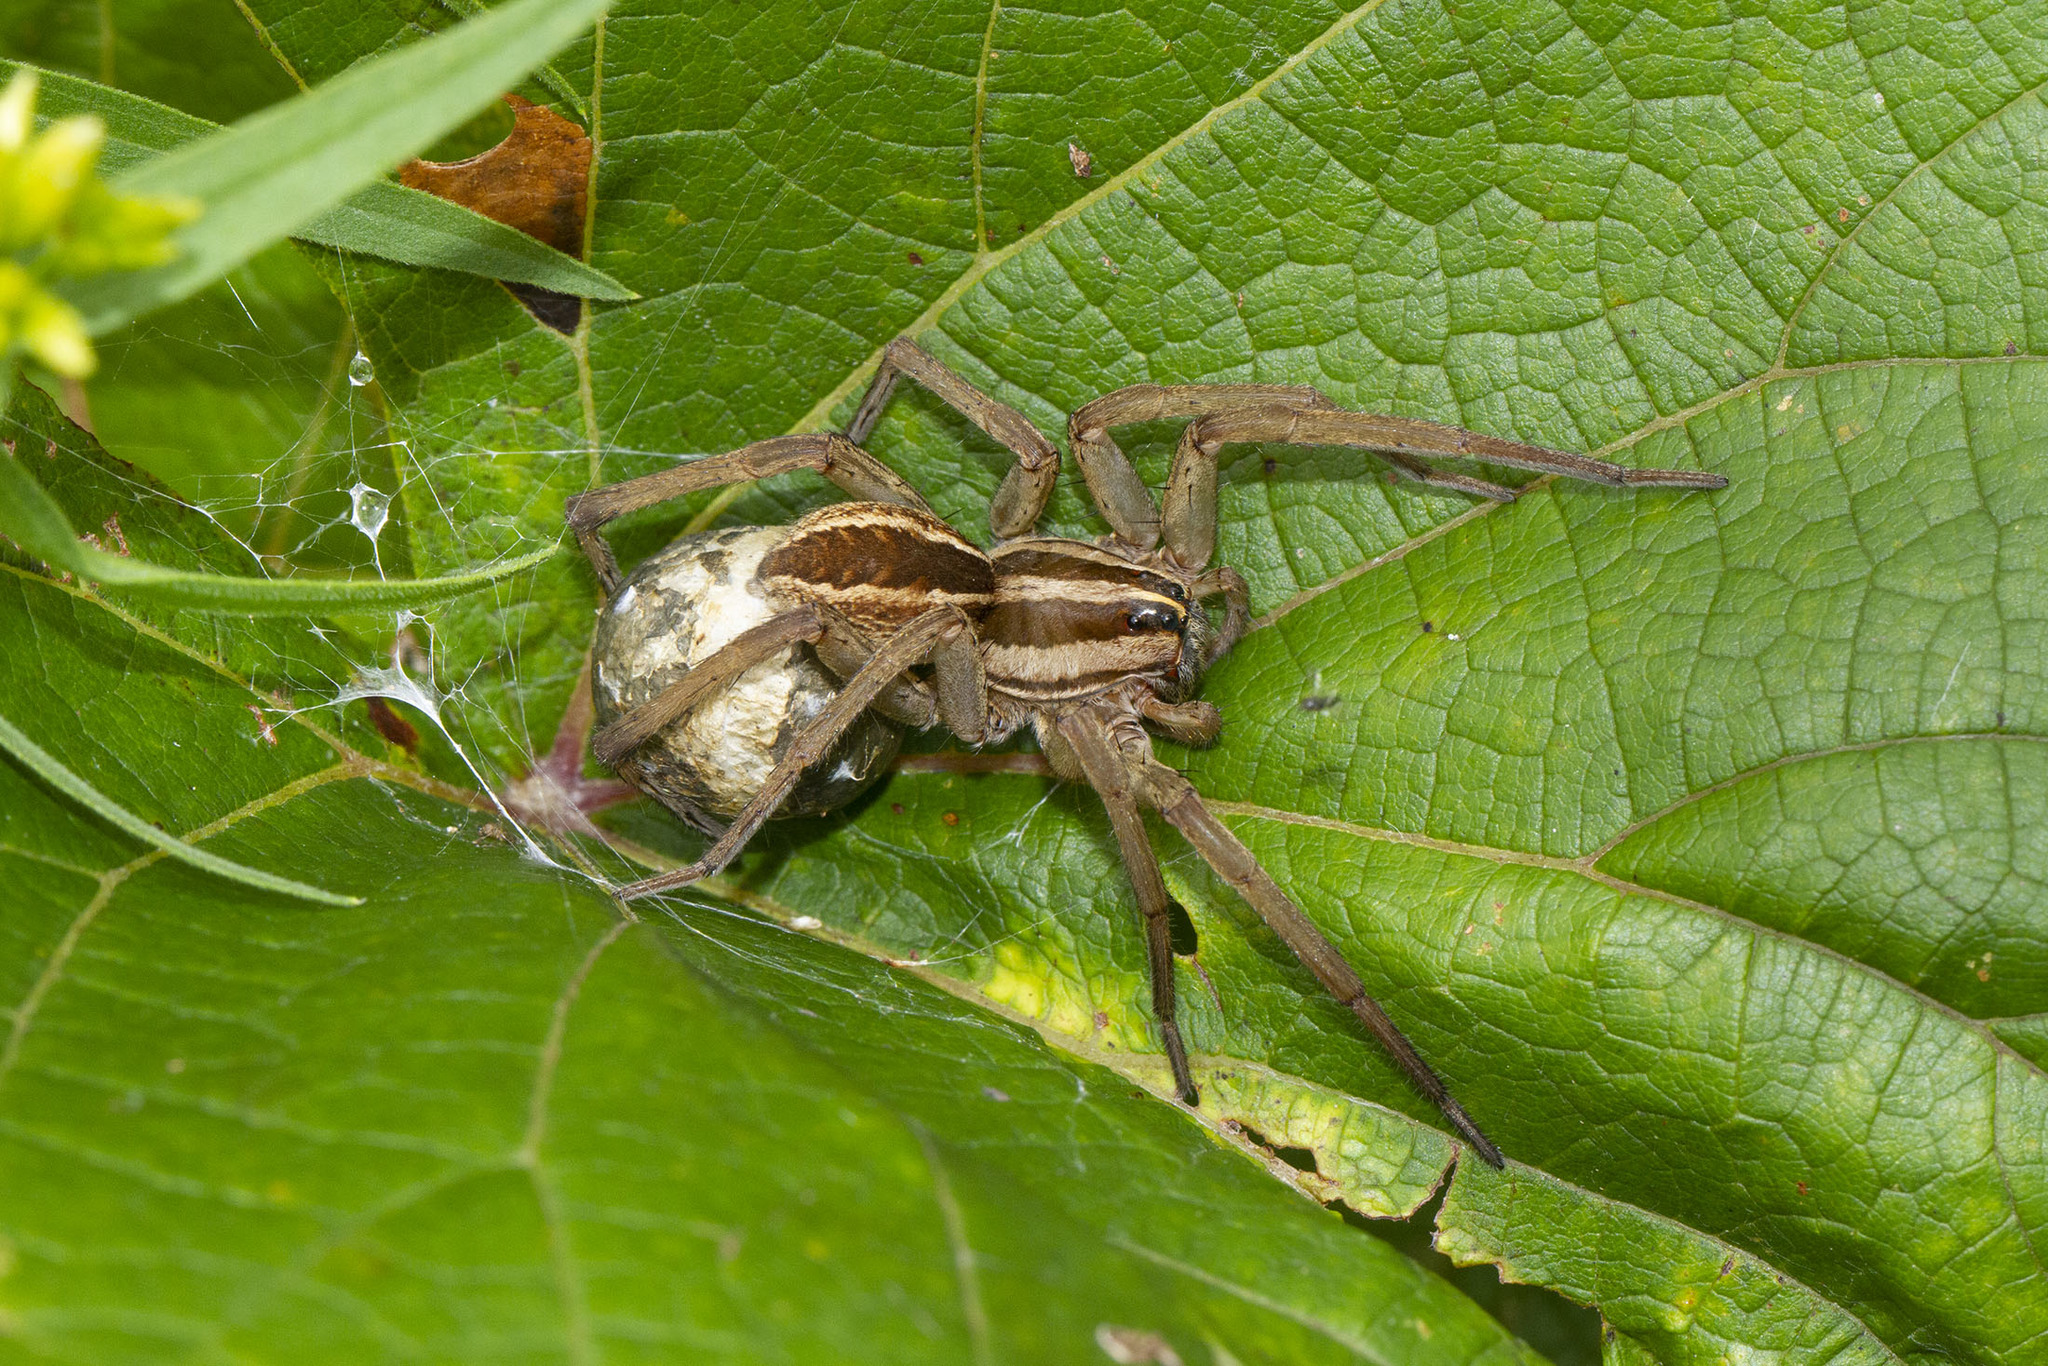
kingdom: Animalia
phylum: Arthropoda
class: Arachnida
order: Araneae
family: Lycosidae
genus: Rabidosa
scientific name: Rabidosa rabida
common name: Rabid wolf spider
